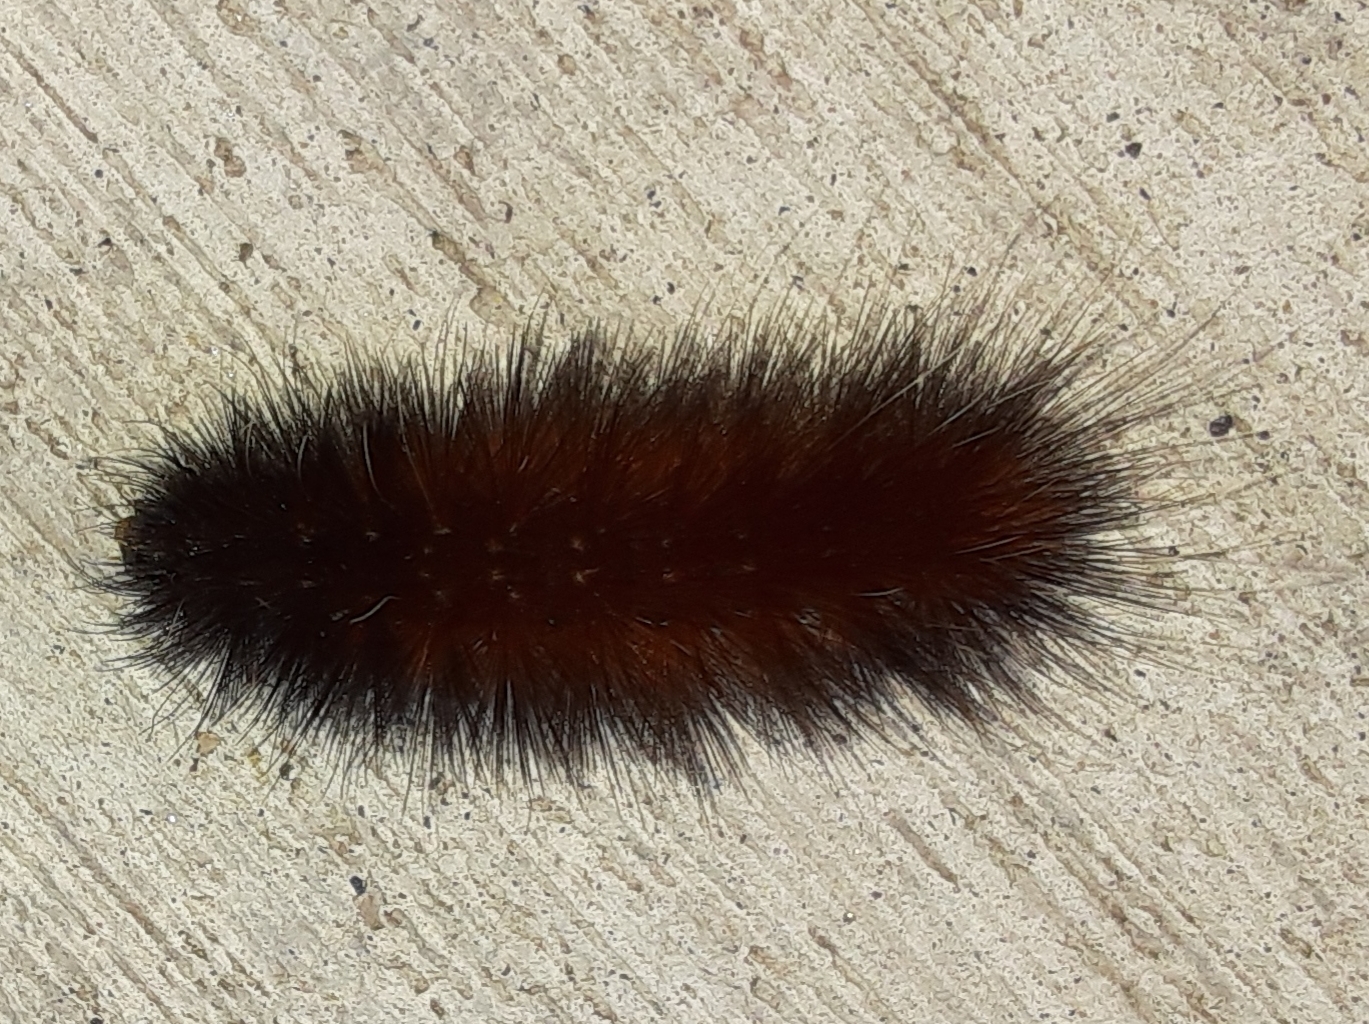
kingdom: Animalia
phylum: Arthropoda
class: Insecta
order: Lepidoptera
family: Erebidae
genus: Spilosoma
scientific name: Spilosoma virginica
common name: Virginia tiger moth
